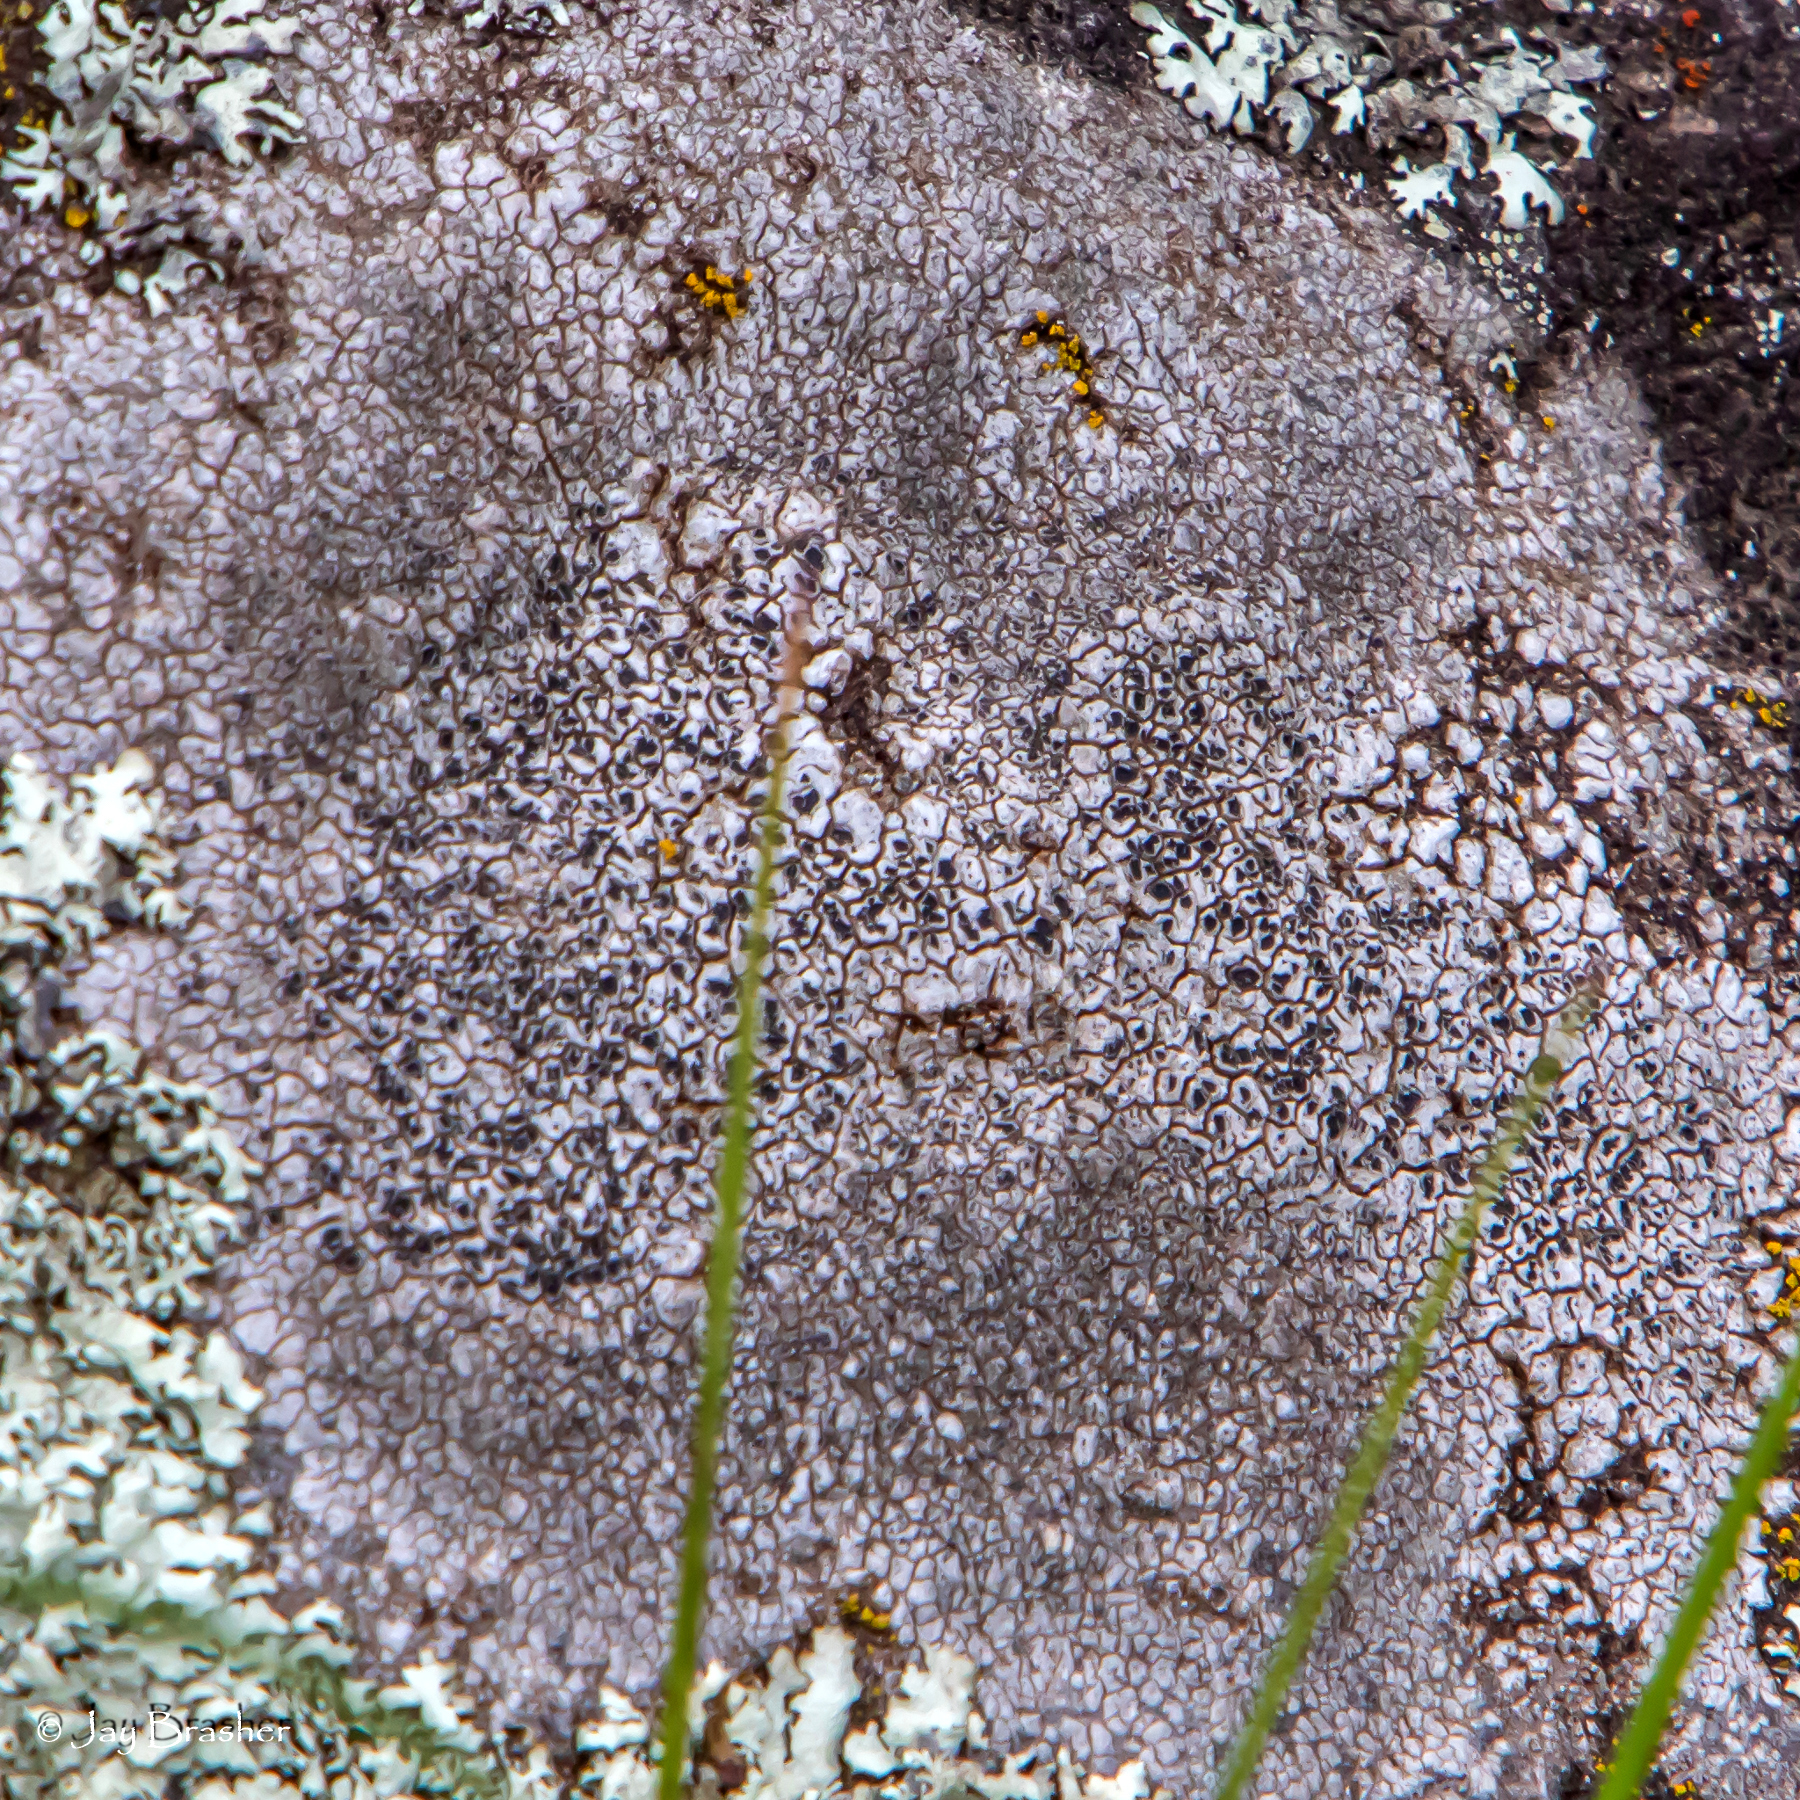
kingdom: Fungi
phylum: Ascomycota
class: Lecanoromycetes
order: Pertusariales
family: Megasporaceae
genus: Aspicilia
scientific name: Aspicilia cinerea
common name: Cinder lichen
